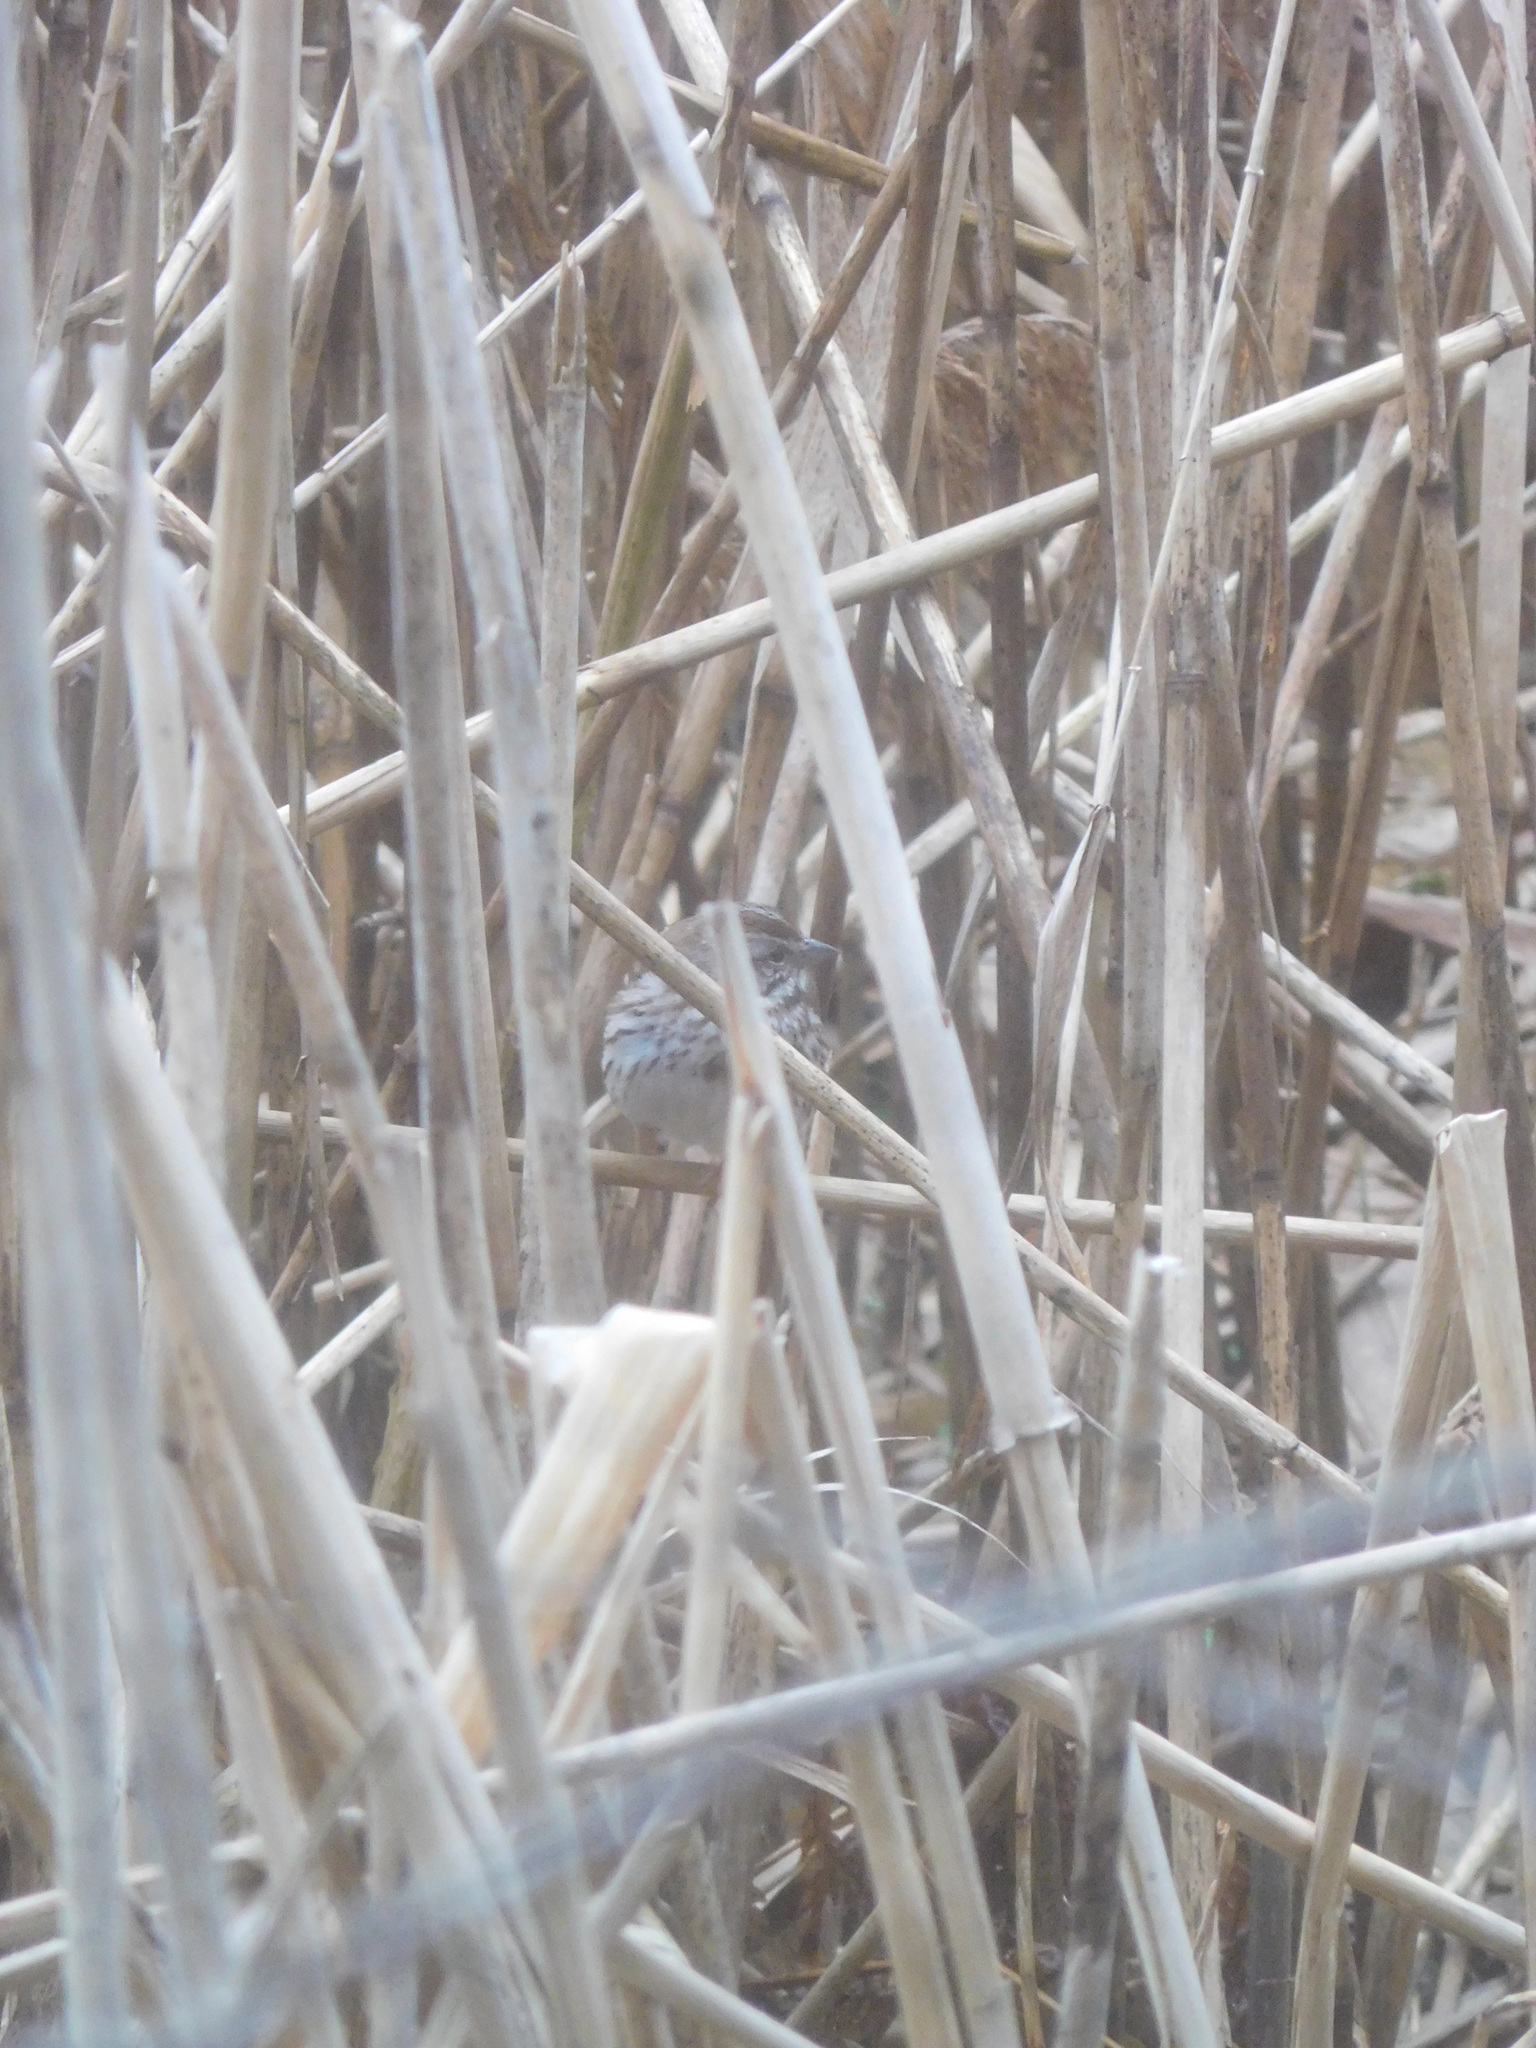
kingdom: Animalia
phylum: Chordata
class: Aves
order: Passeriformes
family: Passerellidae
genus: Melospiza
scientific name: Melospiza melodia
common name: Song sparrow
